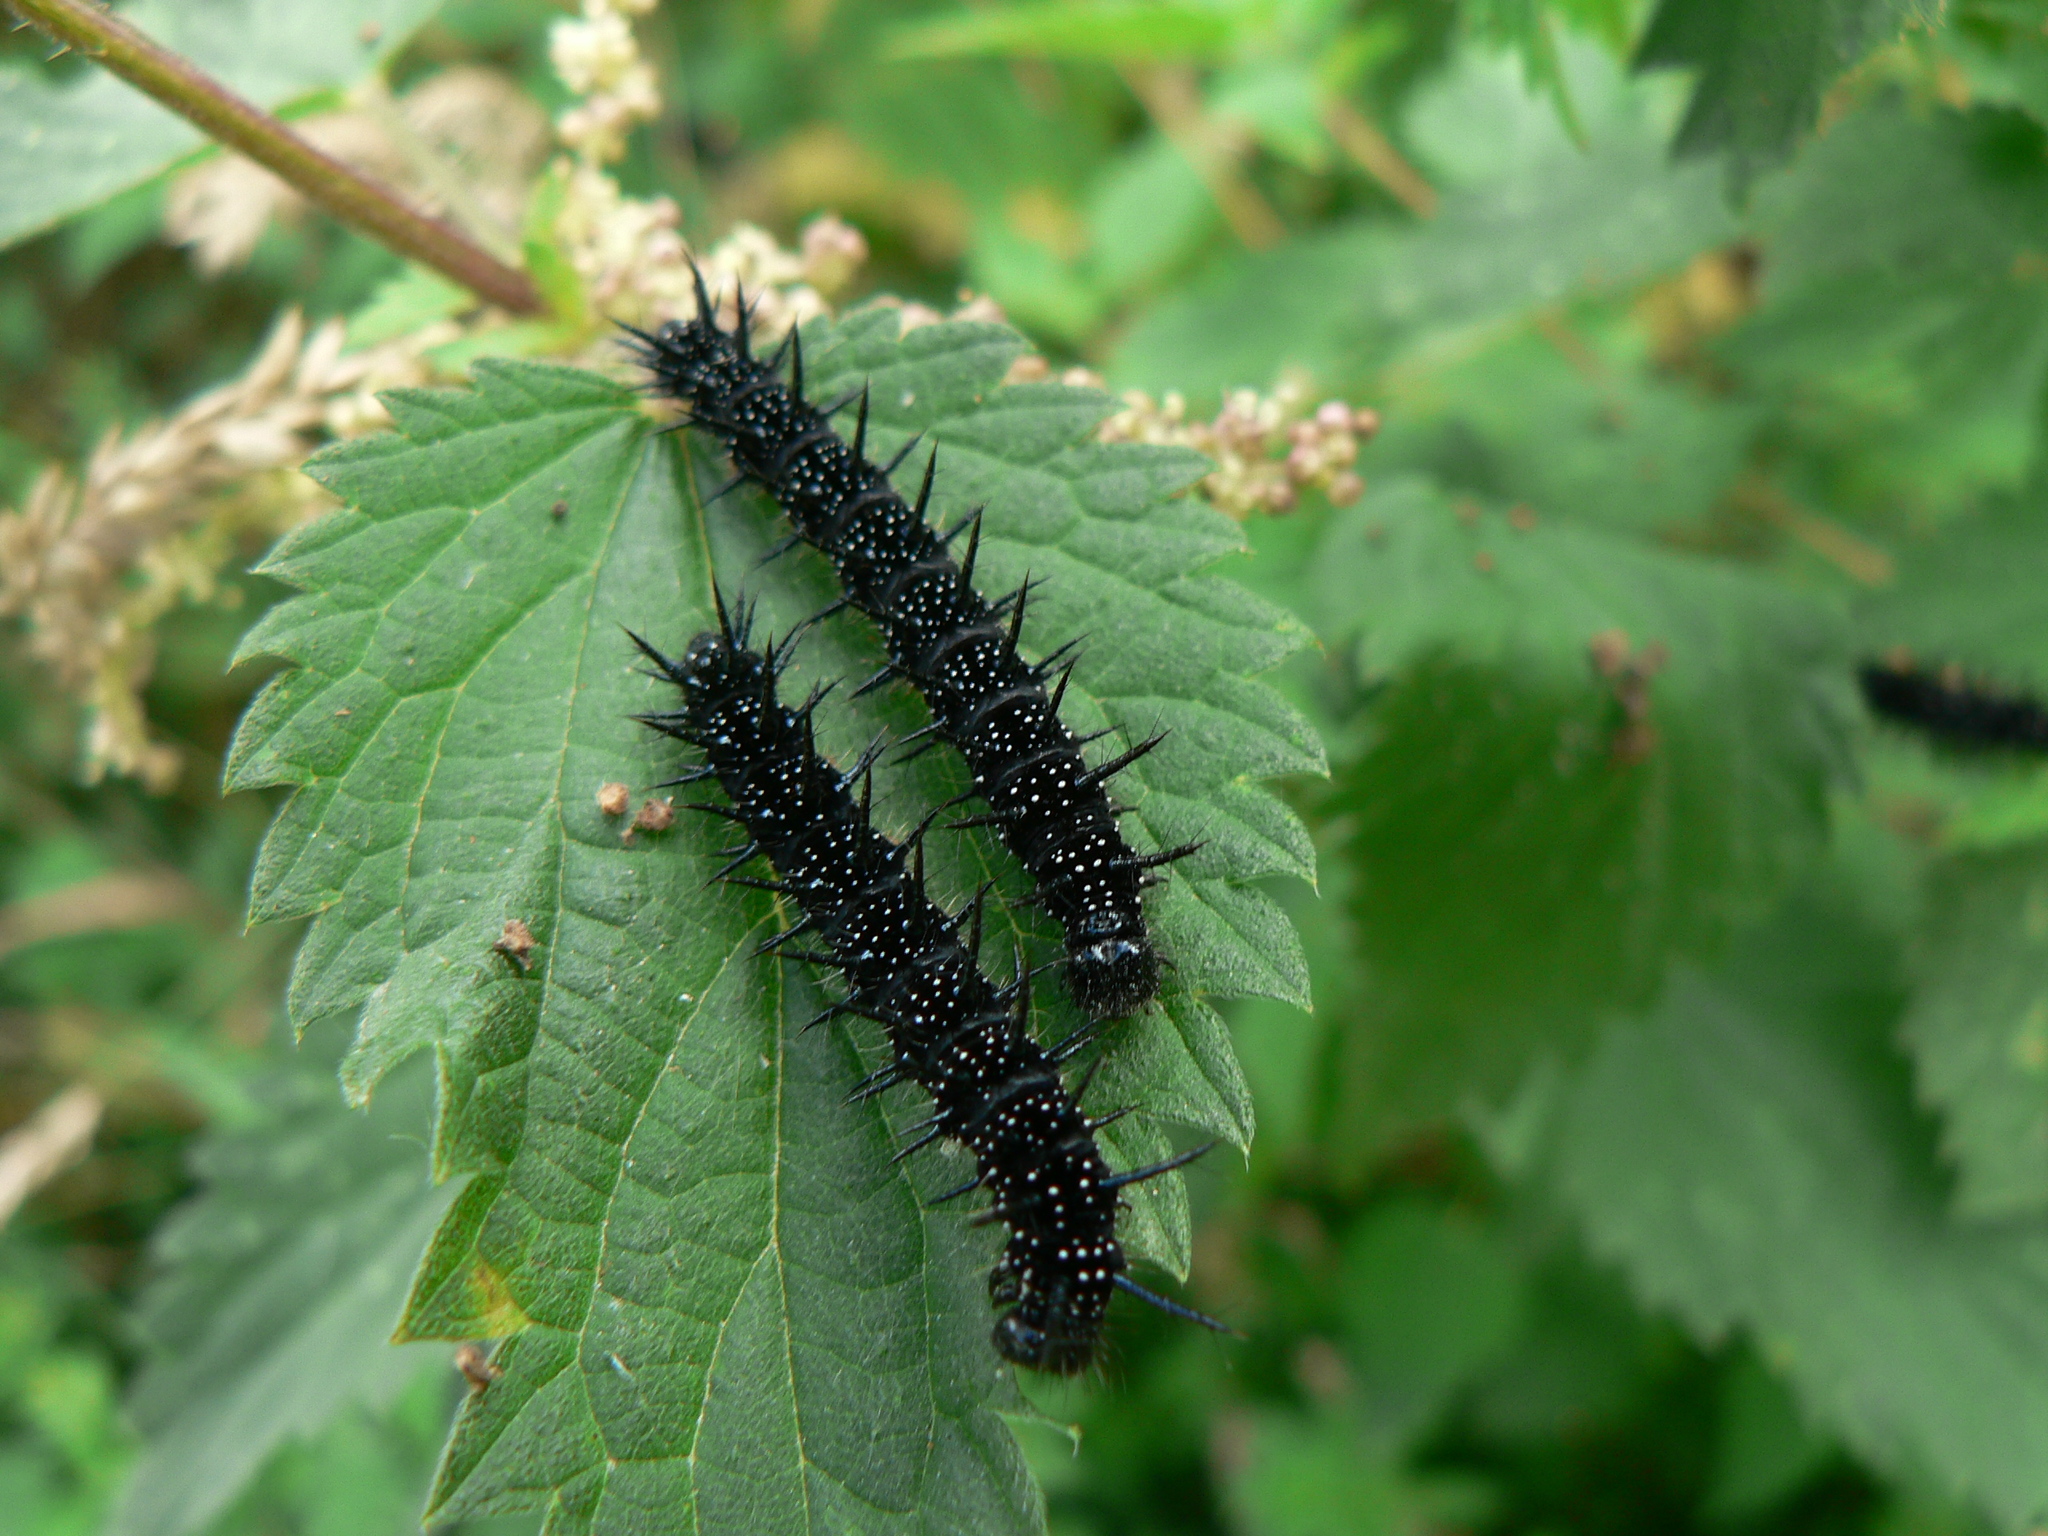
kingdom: Animalia
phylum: Arthropoda
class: Insecta
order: Lepidoptera
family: Nymphalidae
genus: Aglais
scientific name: Aglais io
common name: Peacock
